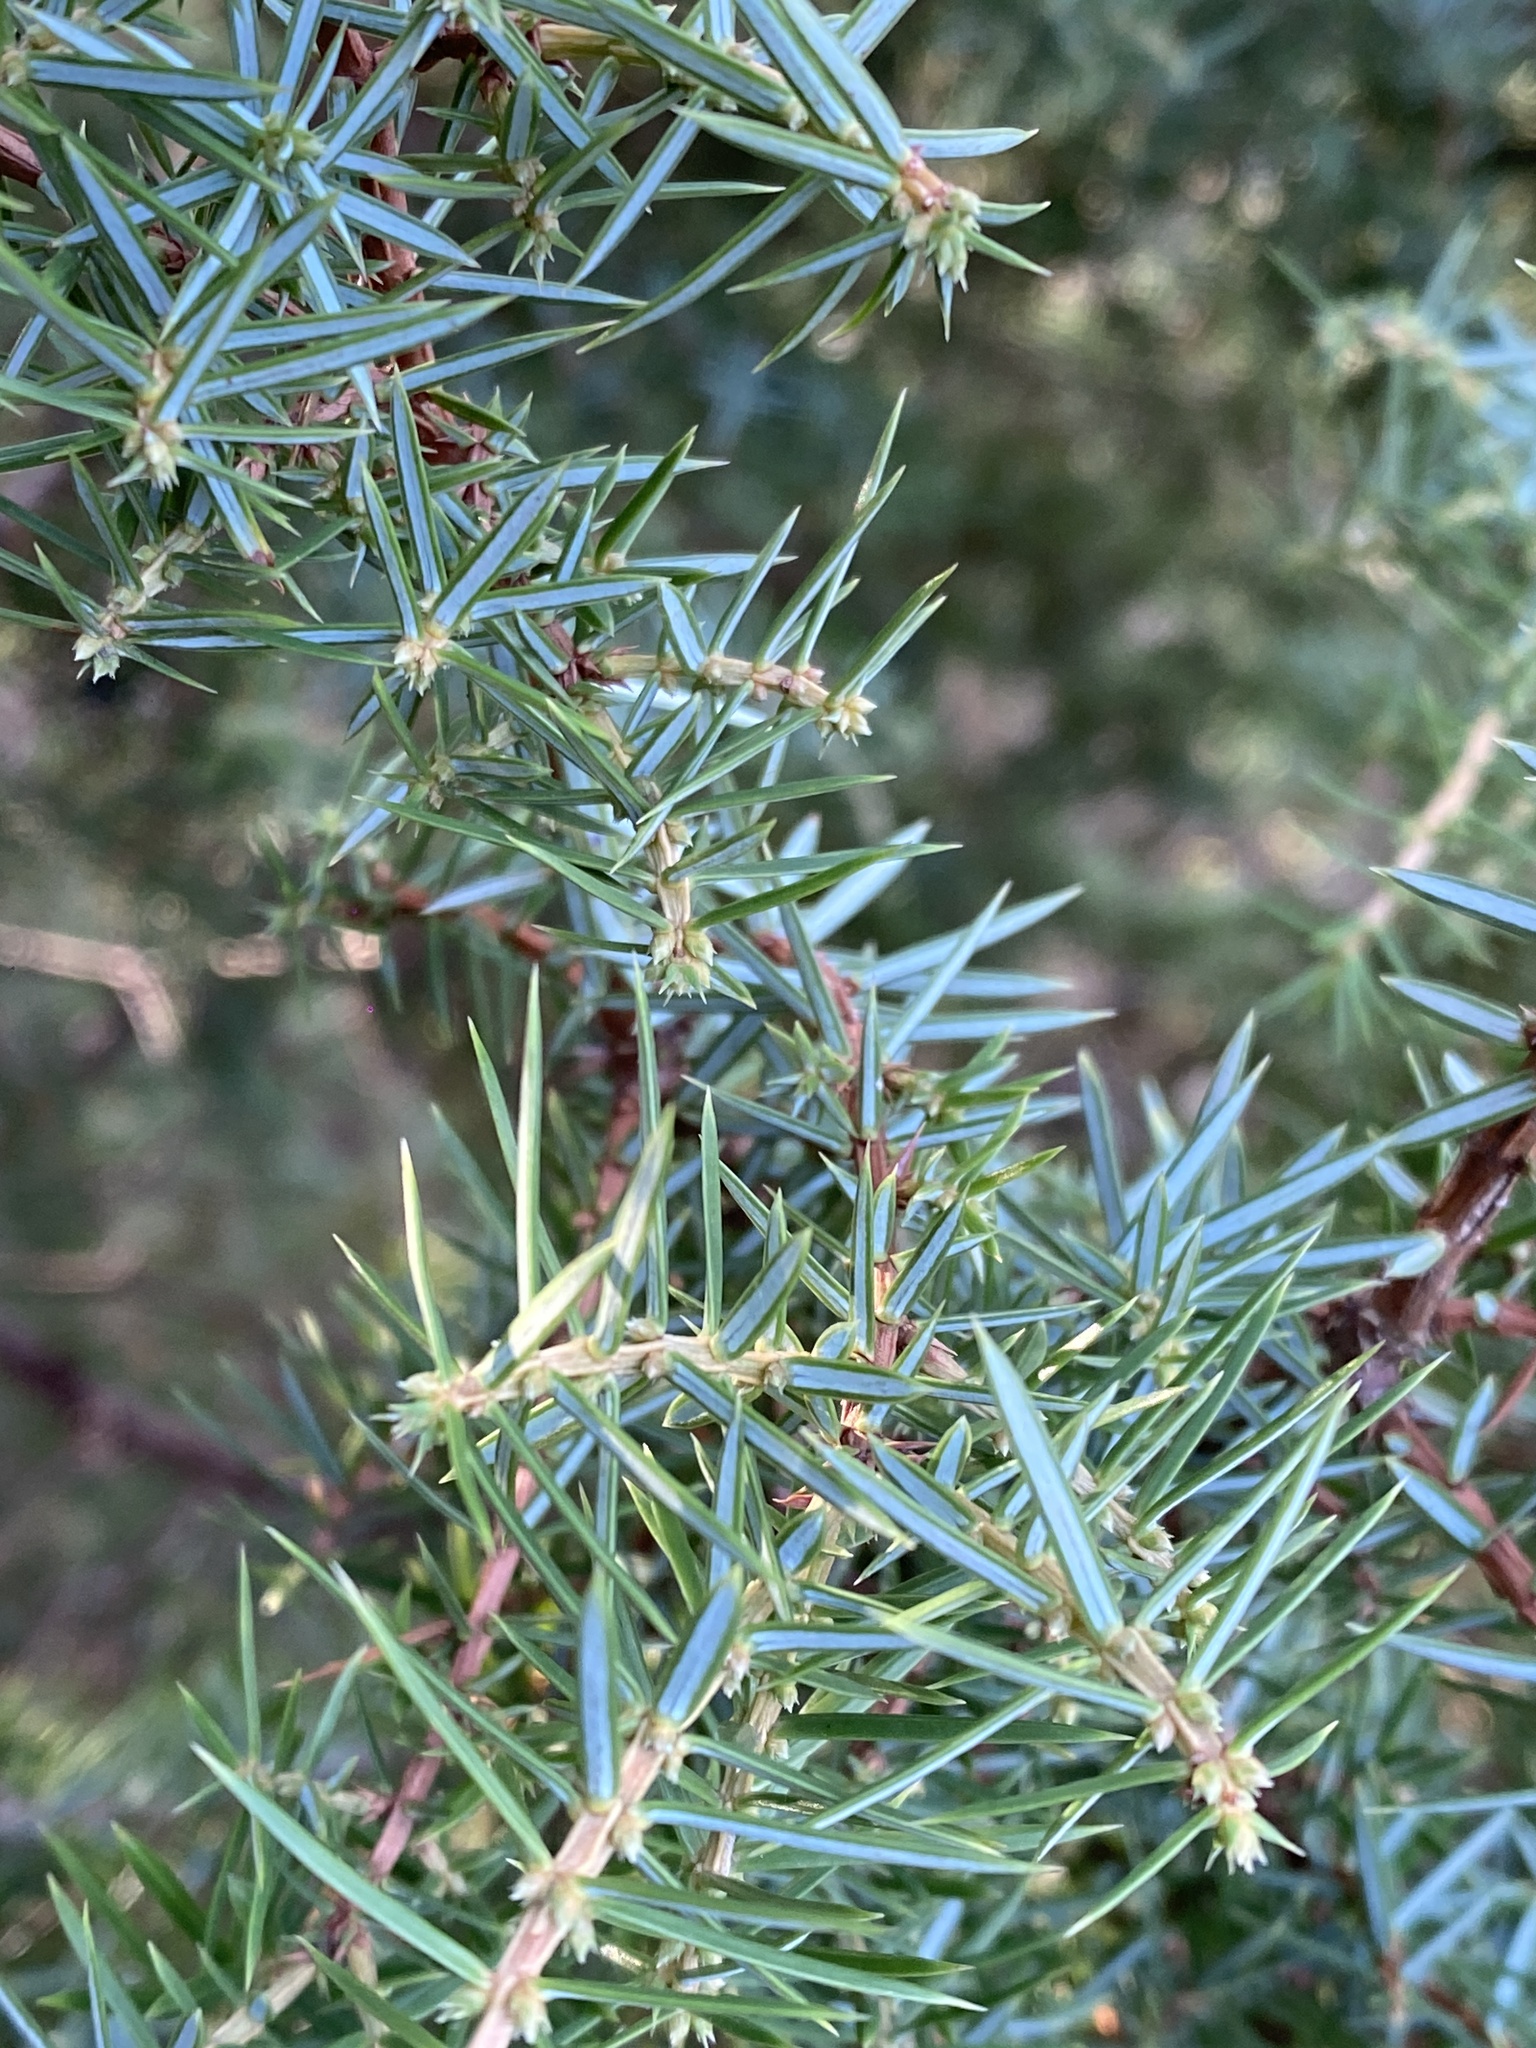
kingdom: Plantae
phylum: Tracheophyta
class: Pinopsida
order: Pinales
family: Cupressaceae
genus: Juniperus
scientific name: Juniperus communis
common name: Common juniper
